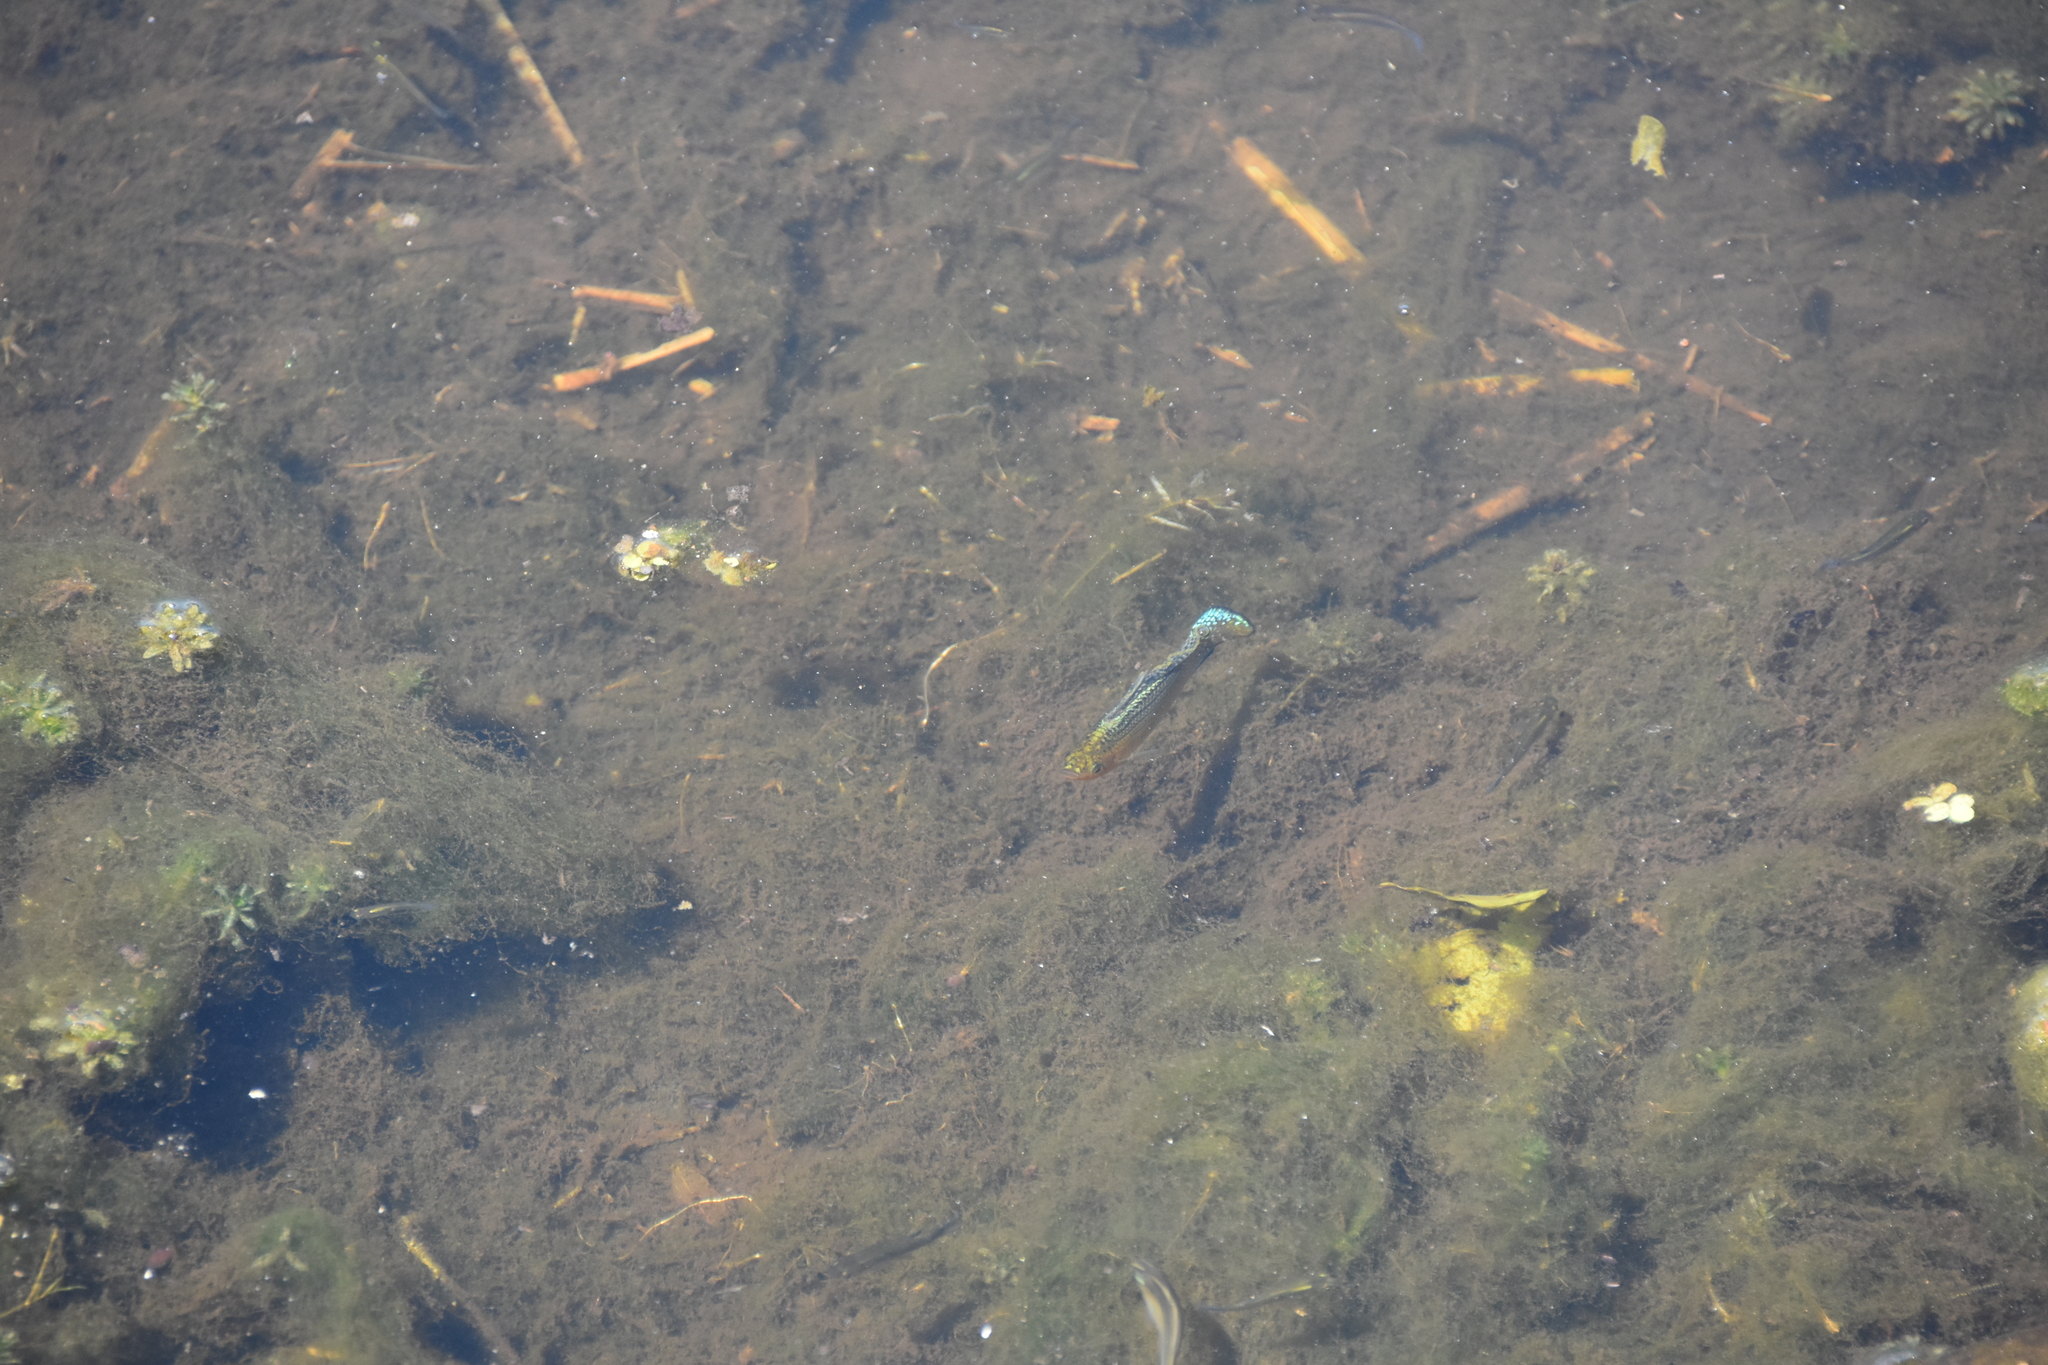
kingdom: Animalia
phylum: Chordata
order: Cyprinodontiformes
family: Poeciliidae
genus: Poecilia
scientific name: Poecilia latipinna
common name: Sailfin molly
